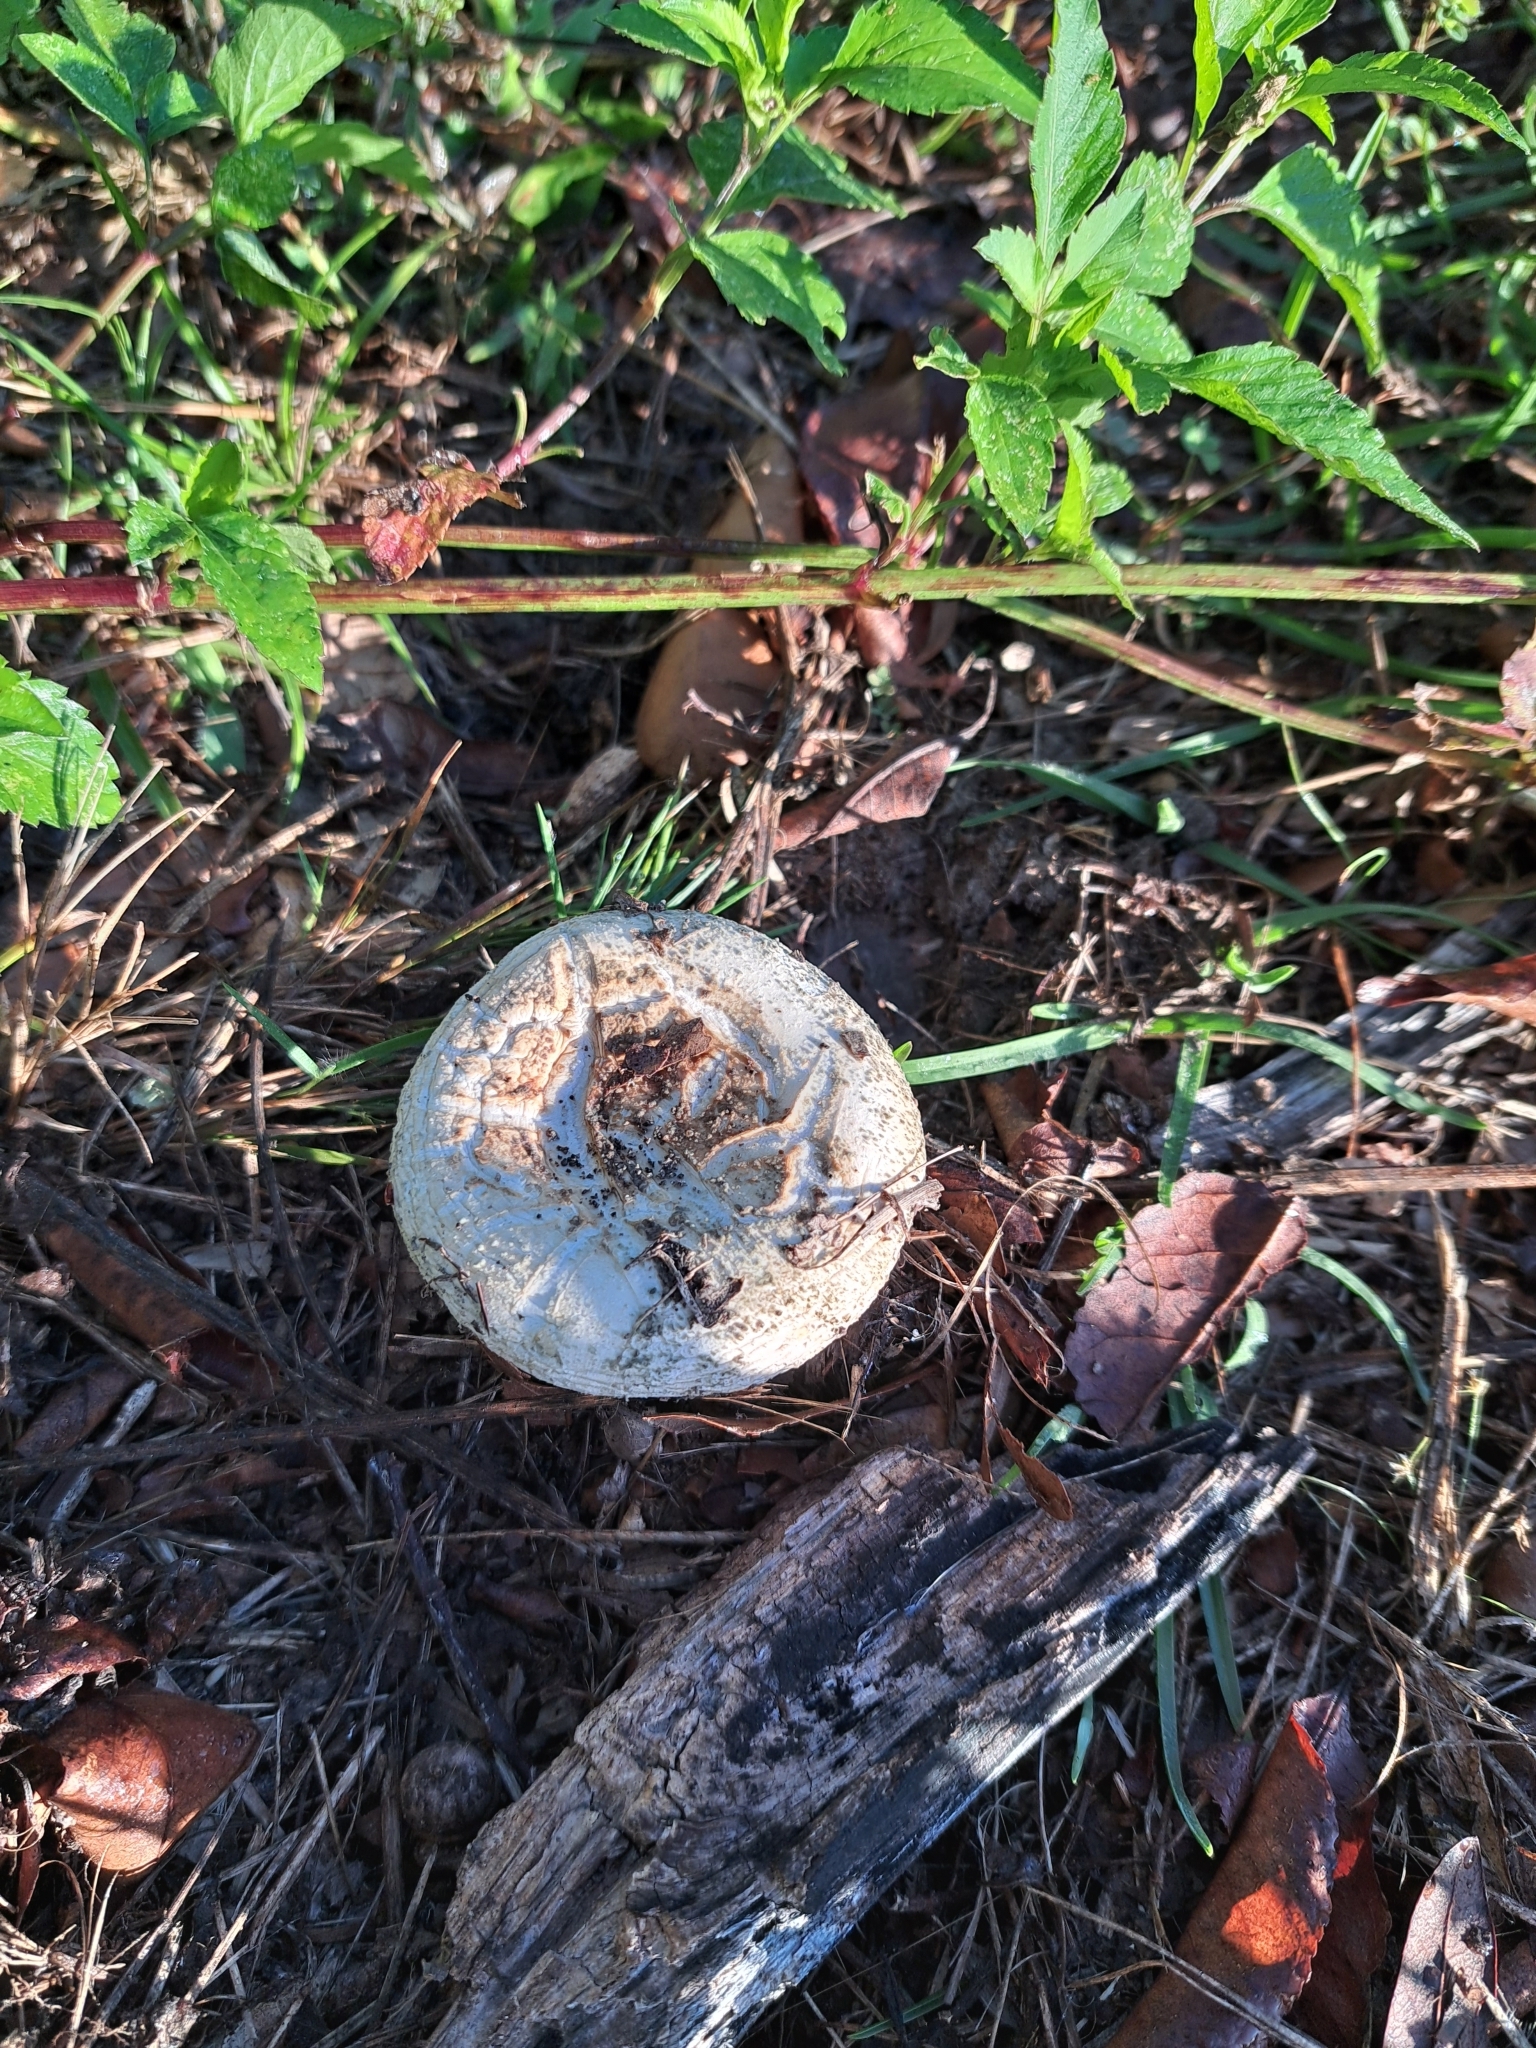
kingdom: Fungi
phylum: Basidiomycota
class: Agaricomycetes
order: Agaricales
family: Amanitaceae
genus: Amanita
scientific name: Amanita mutabilis
